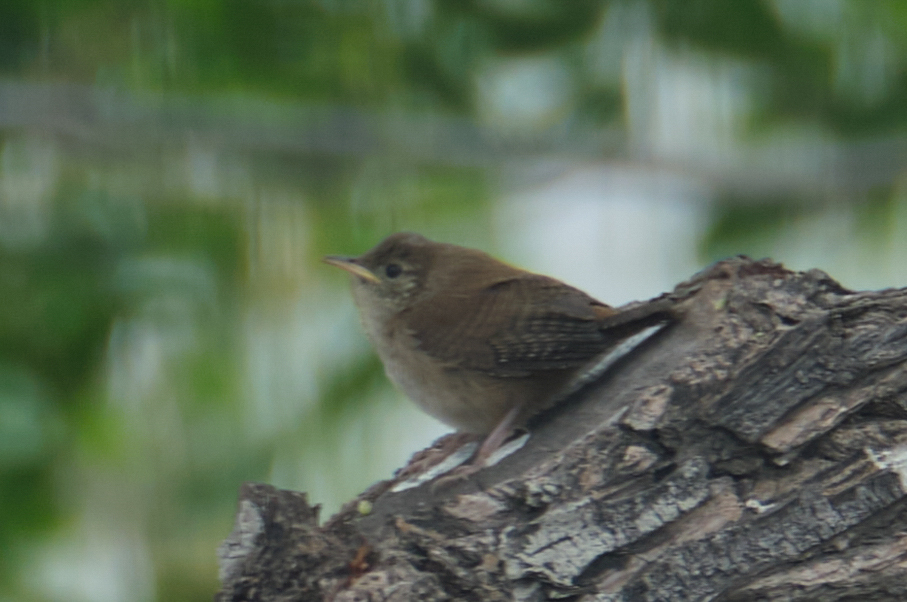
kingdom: Animalia
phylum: Chordata
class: Aves
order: Passeriformes
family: Troglodytidae
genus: Troglodytes
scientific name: Troglodytes aedon
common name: House wren
